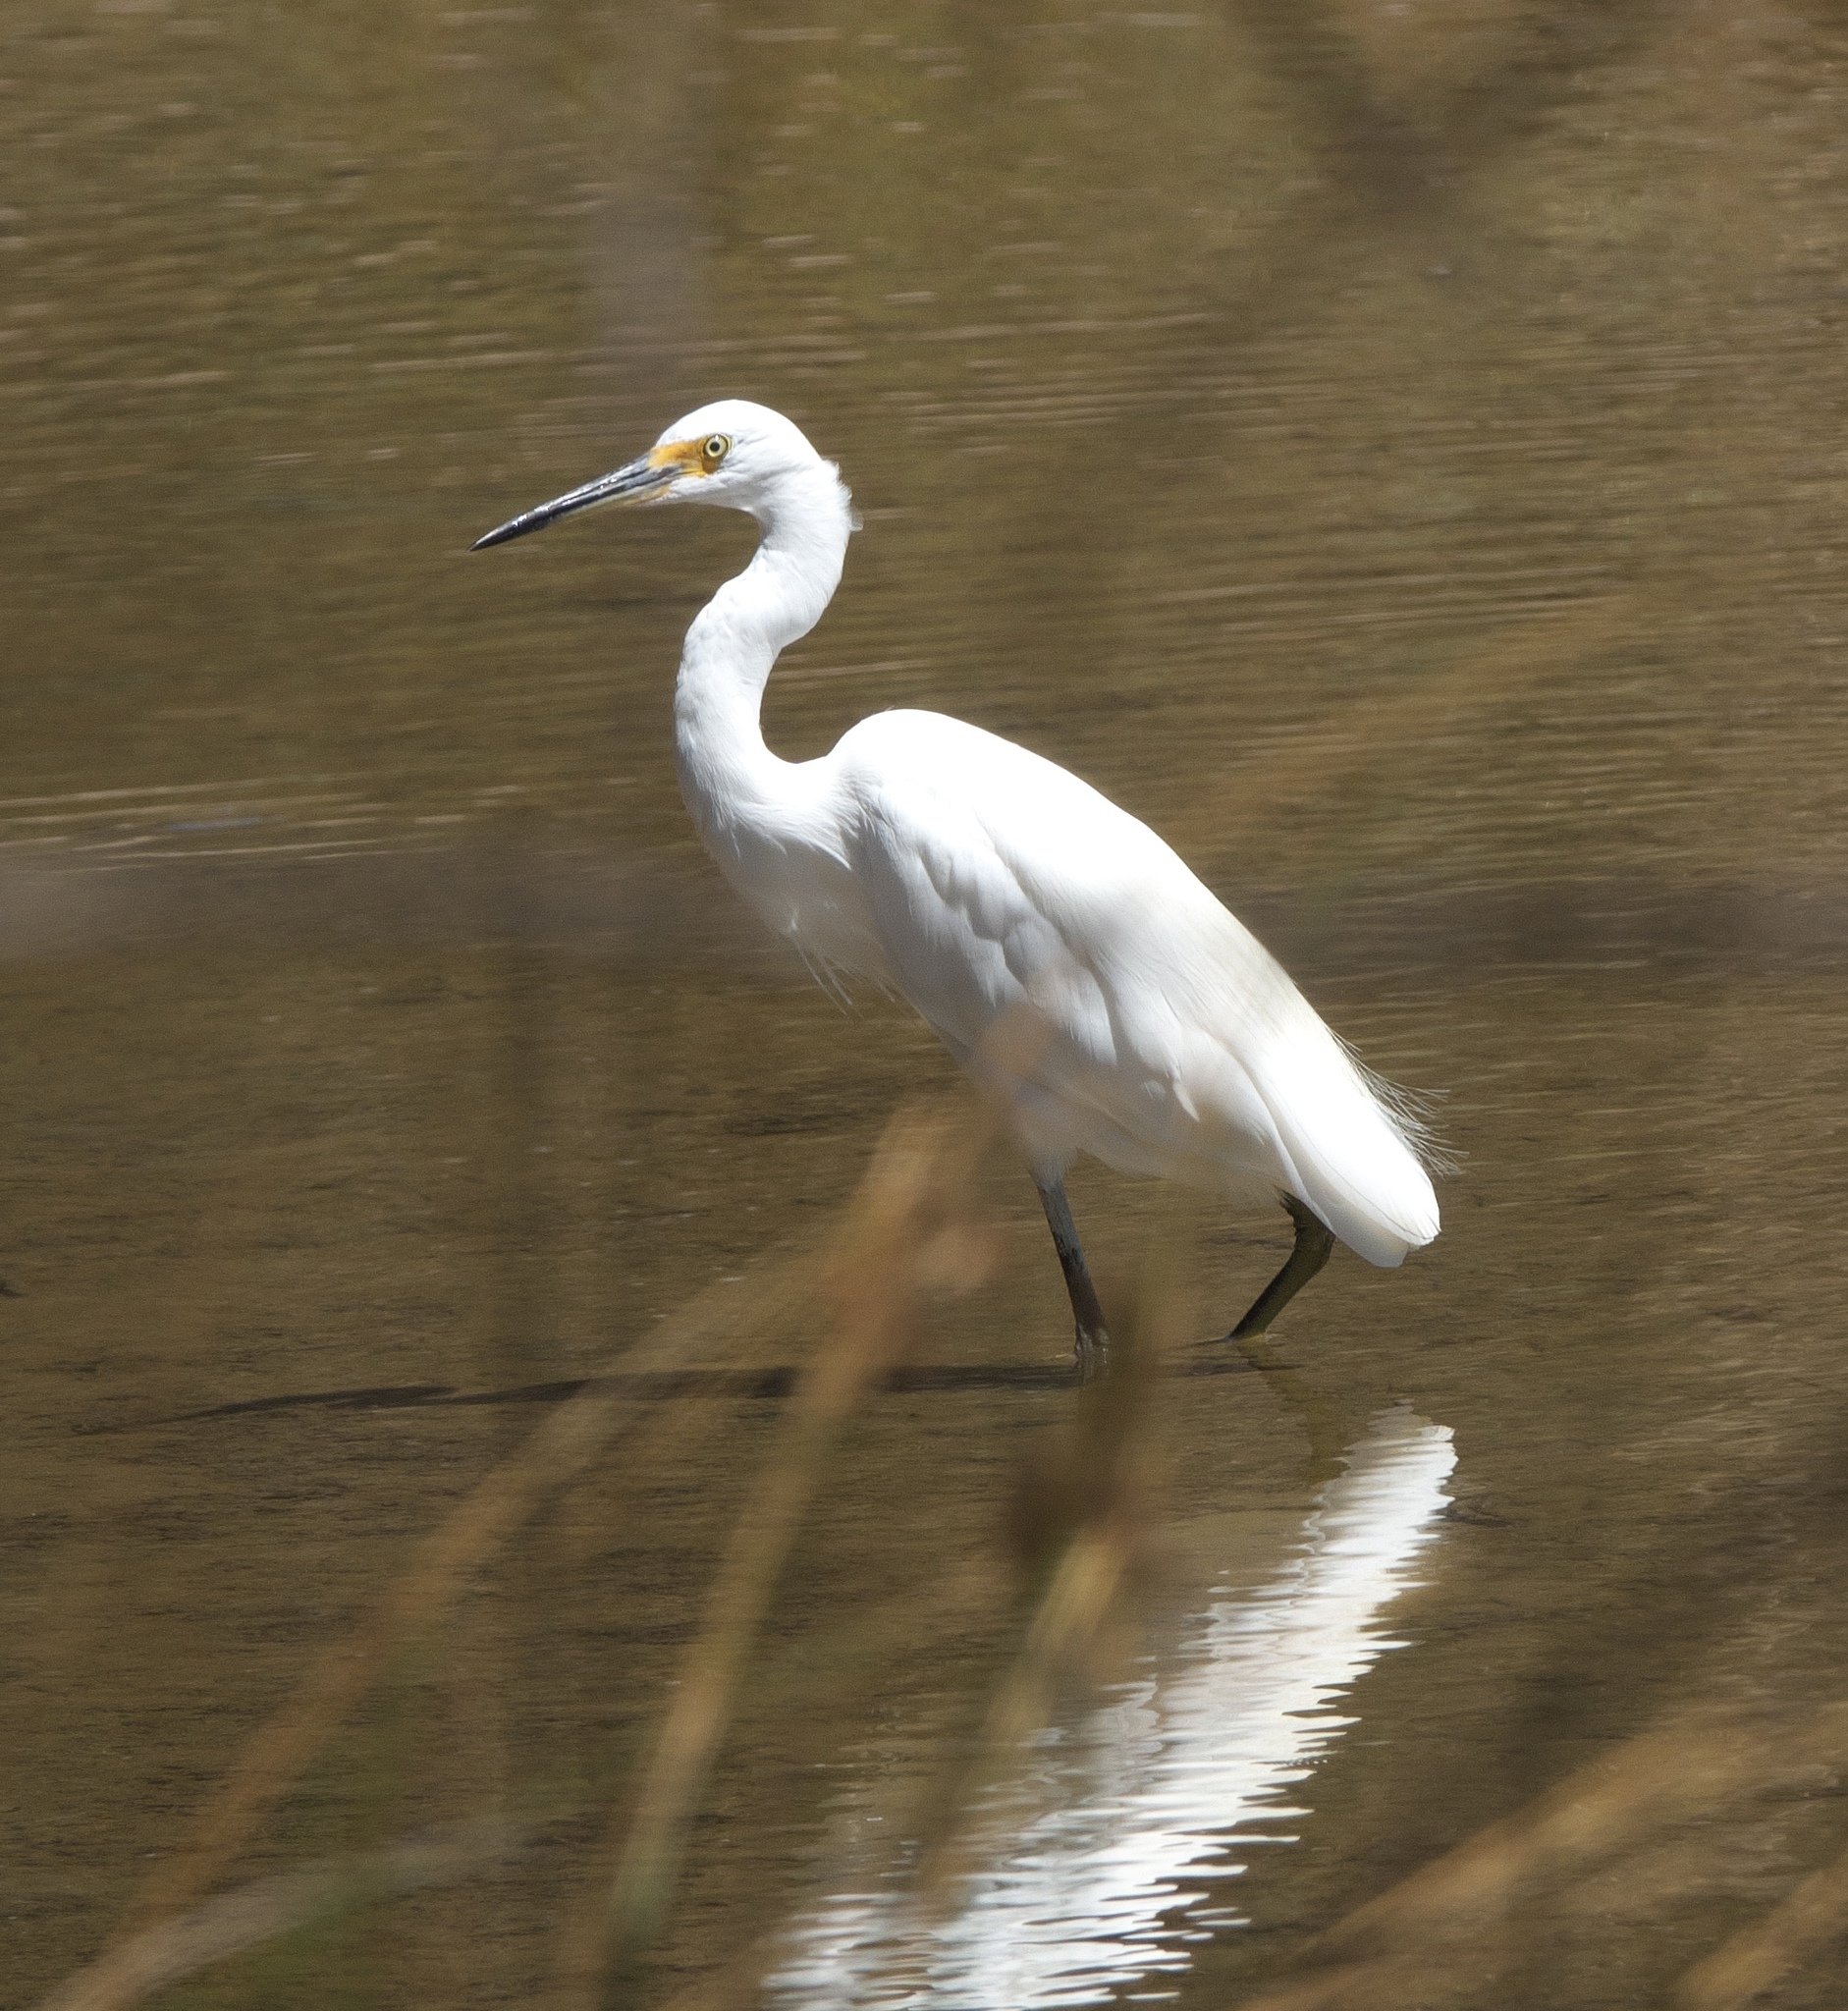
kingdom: Animalia
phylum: Chordata
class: Aves
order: Pelecaniformes
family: Ardeidae
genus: Egretta
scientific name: Egretta garzetta
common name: Little egret
